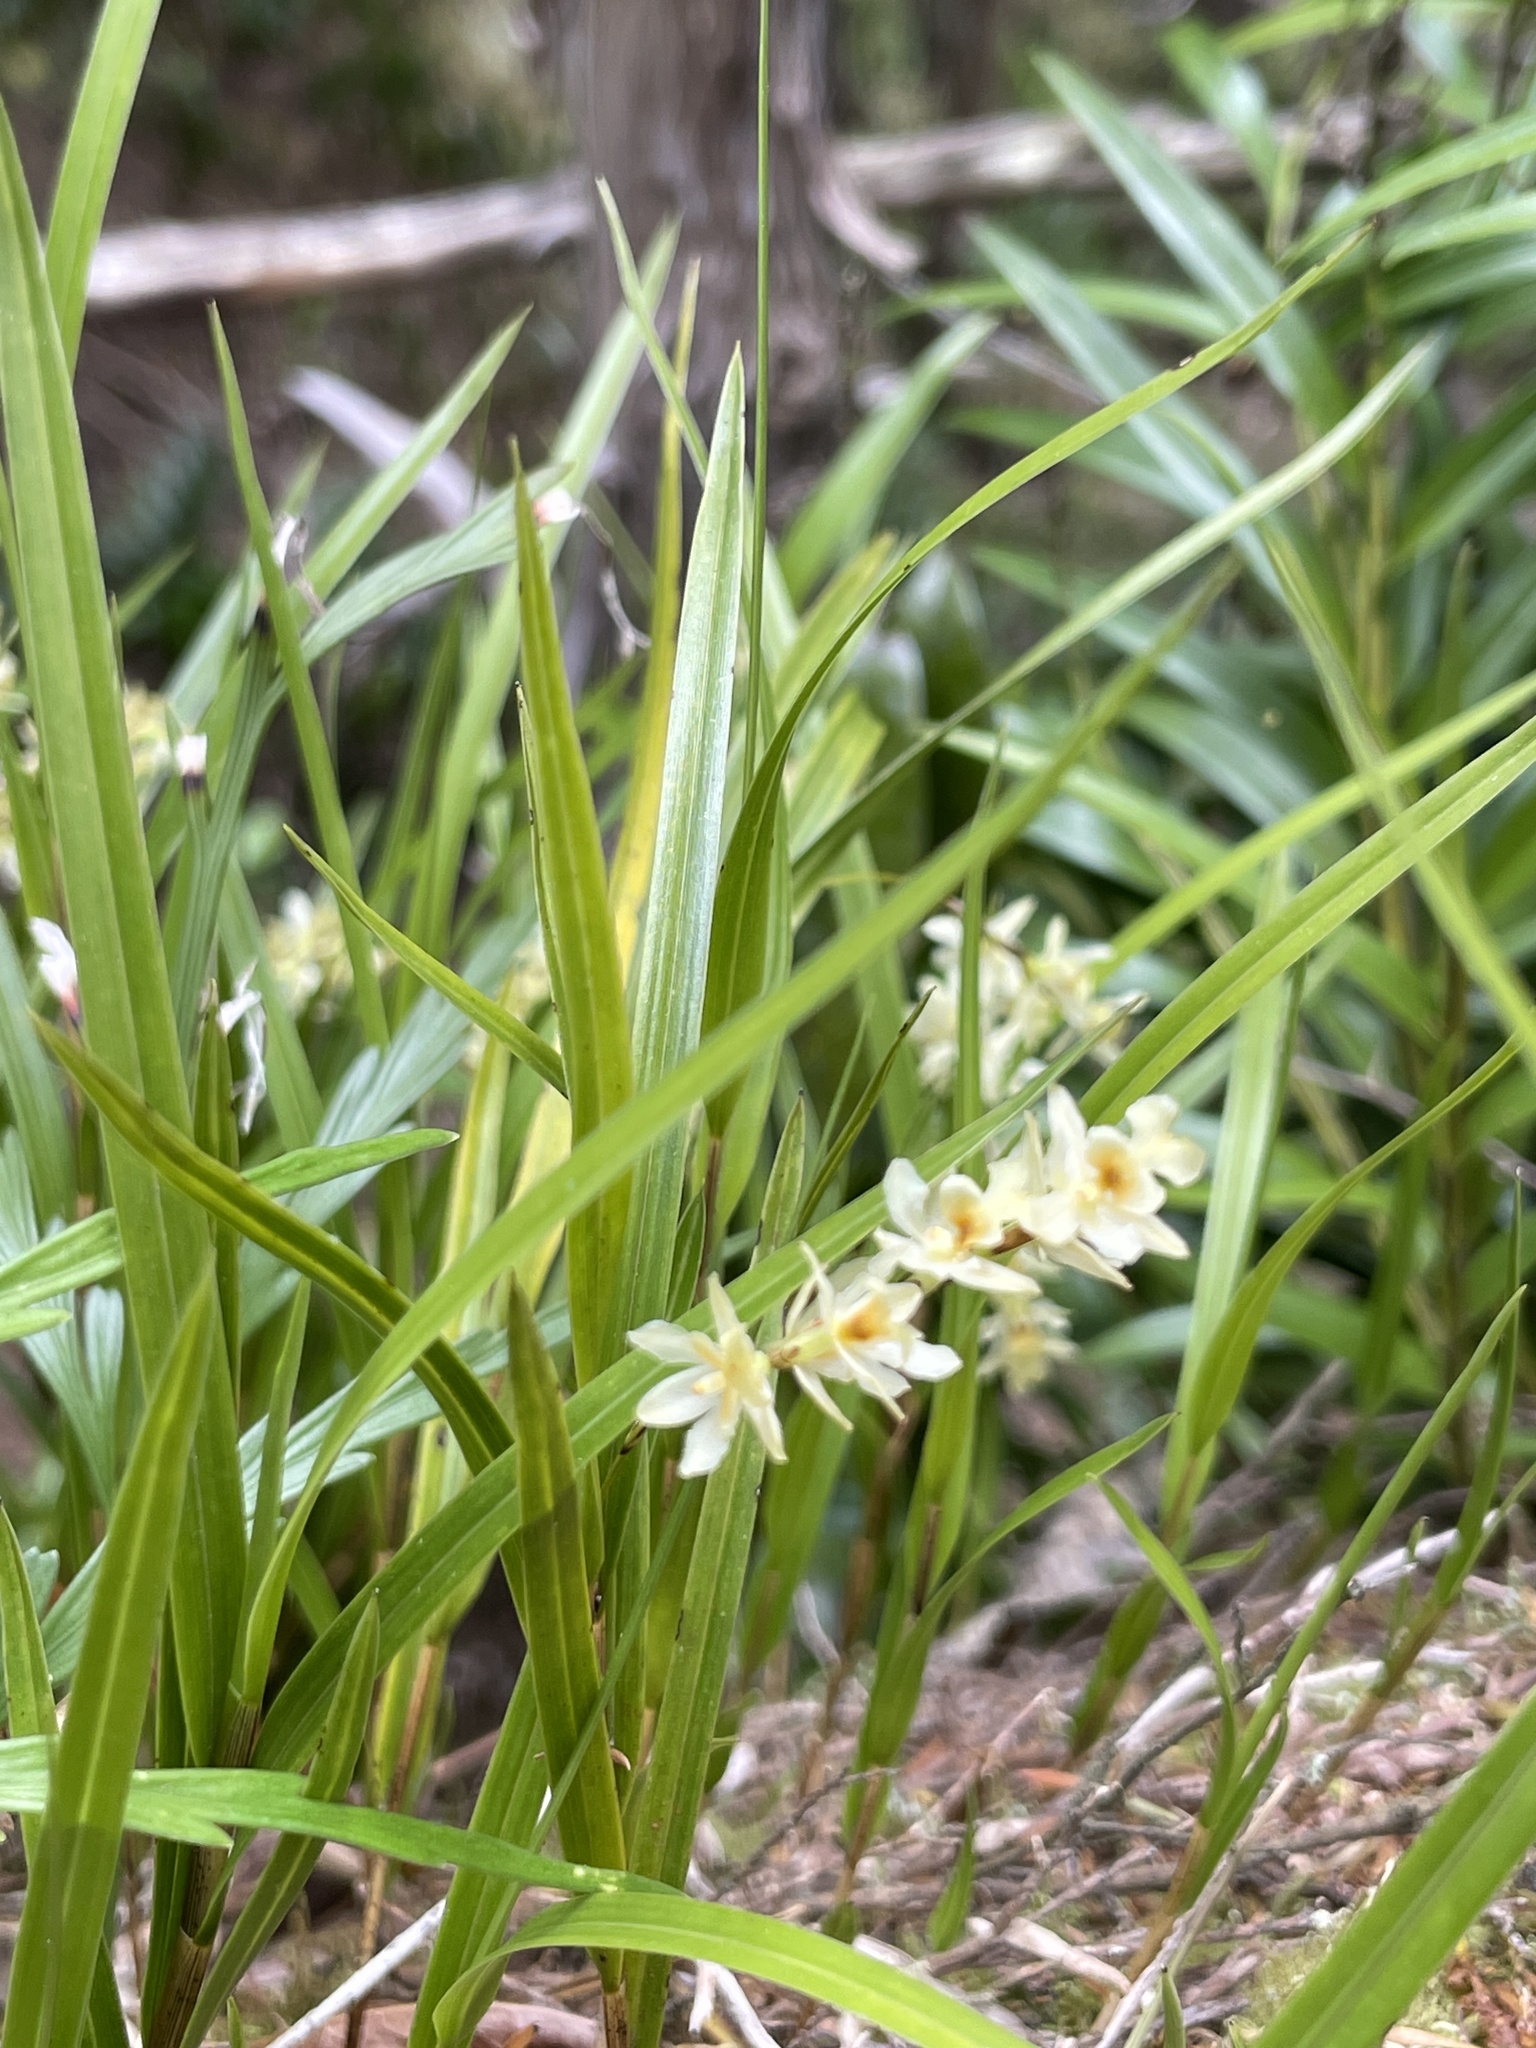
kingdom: Plantae
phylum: Tracheophyta
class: Liliopsida
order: Asparagales
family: Orchidaceae
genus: Earina
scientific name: Earina mucronata
